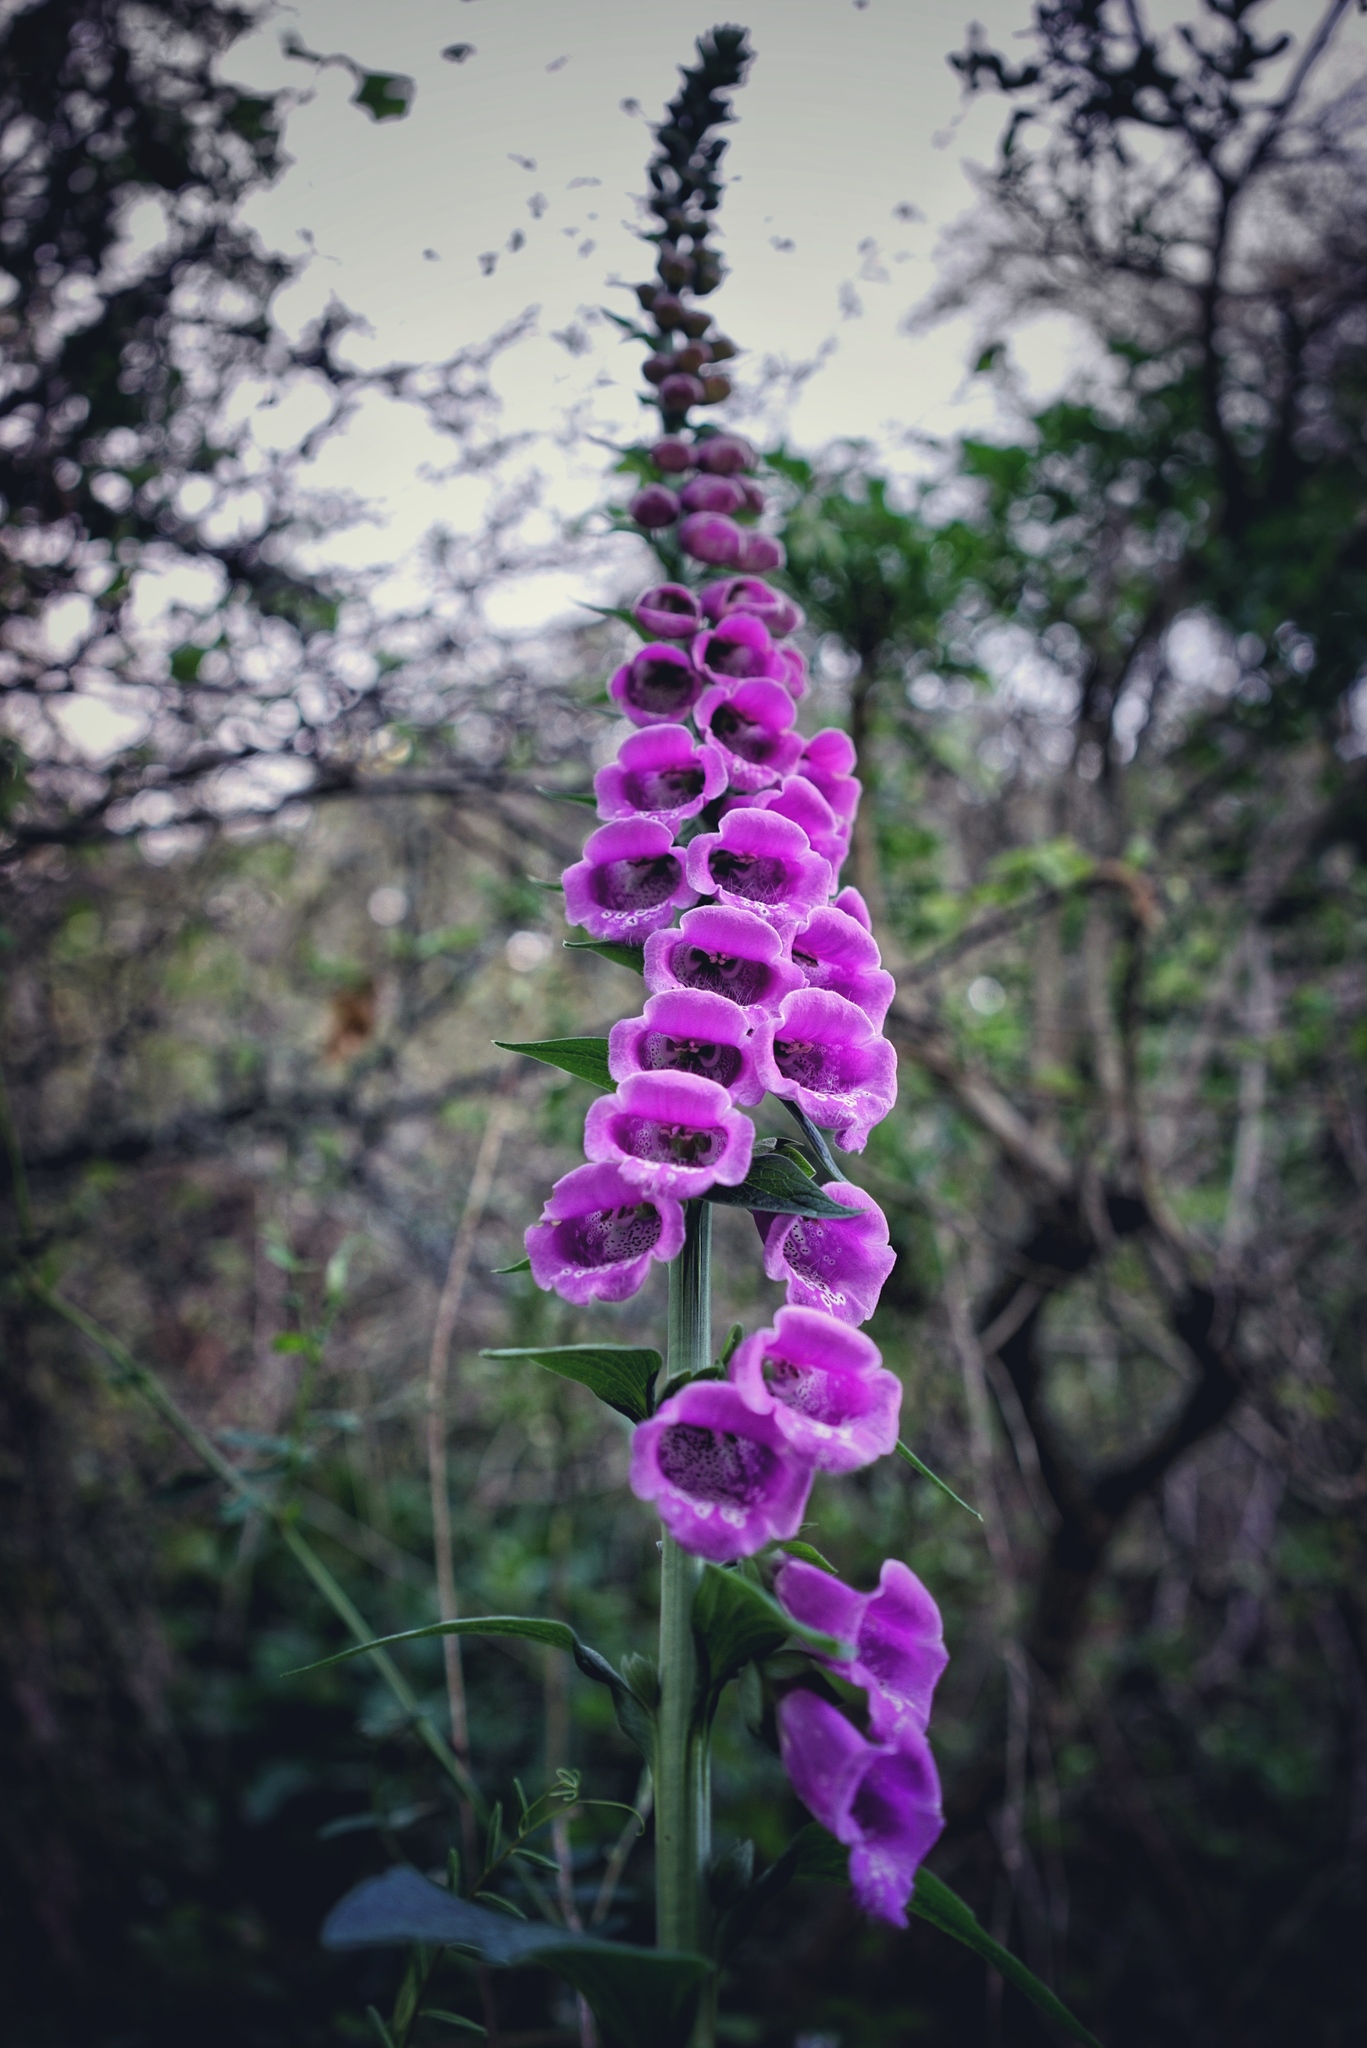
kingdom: Plantae
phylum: Tracheophyta
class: Magnoliopsida
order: Lamiales
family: Plantaginaceae
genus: Digitalis
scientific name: Digitalis purpurea
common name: Foxglove
